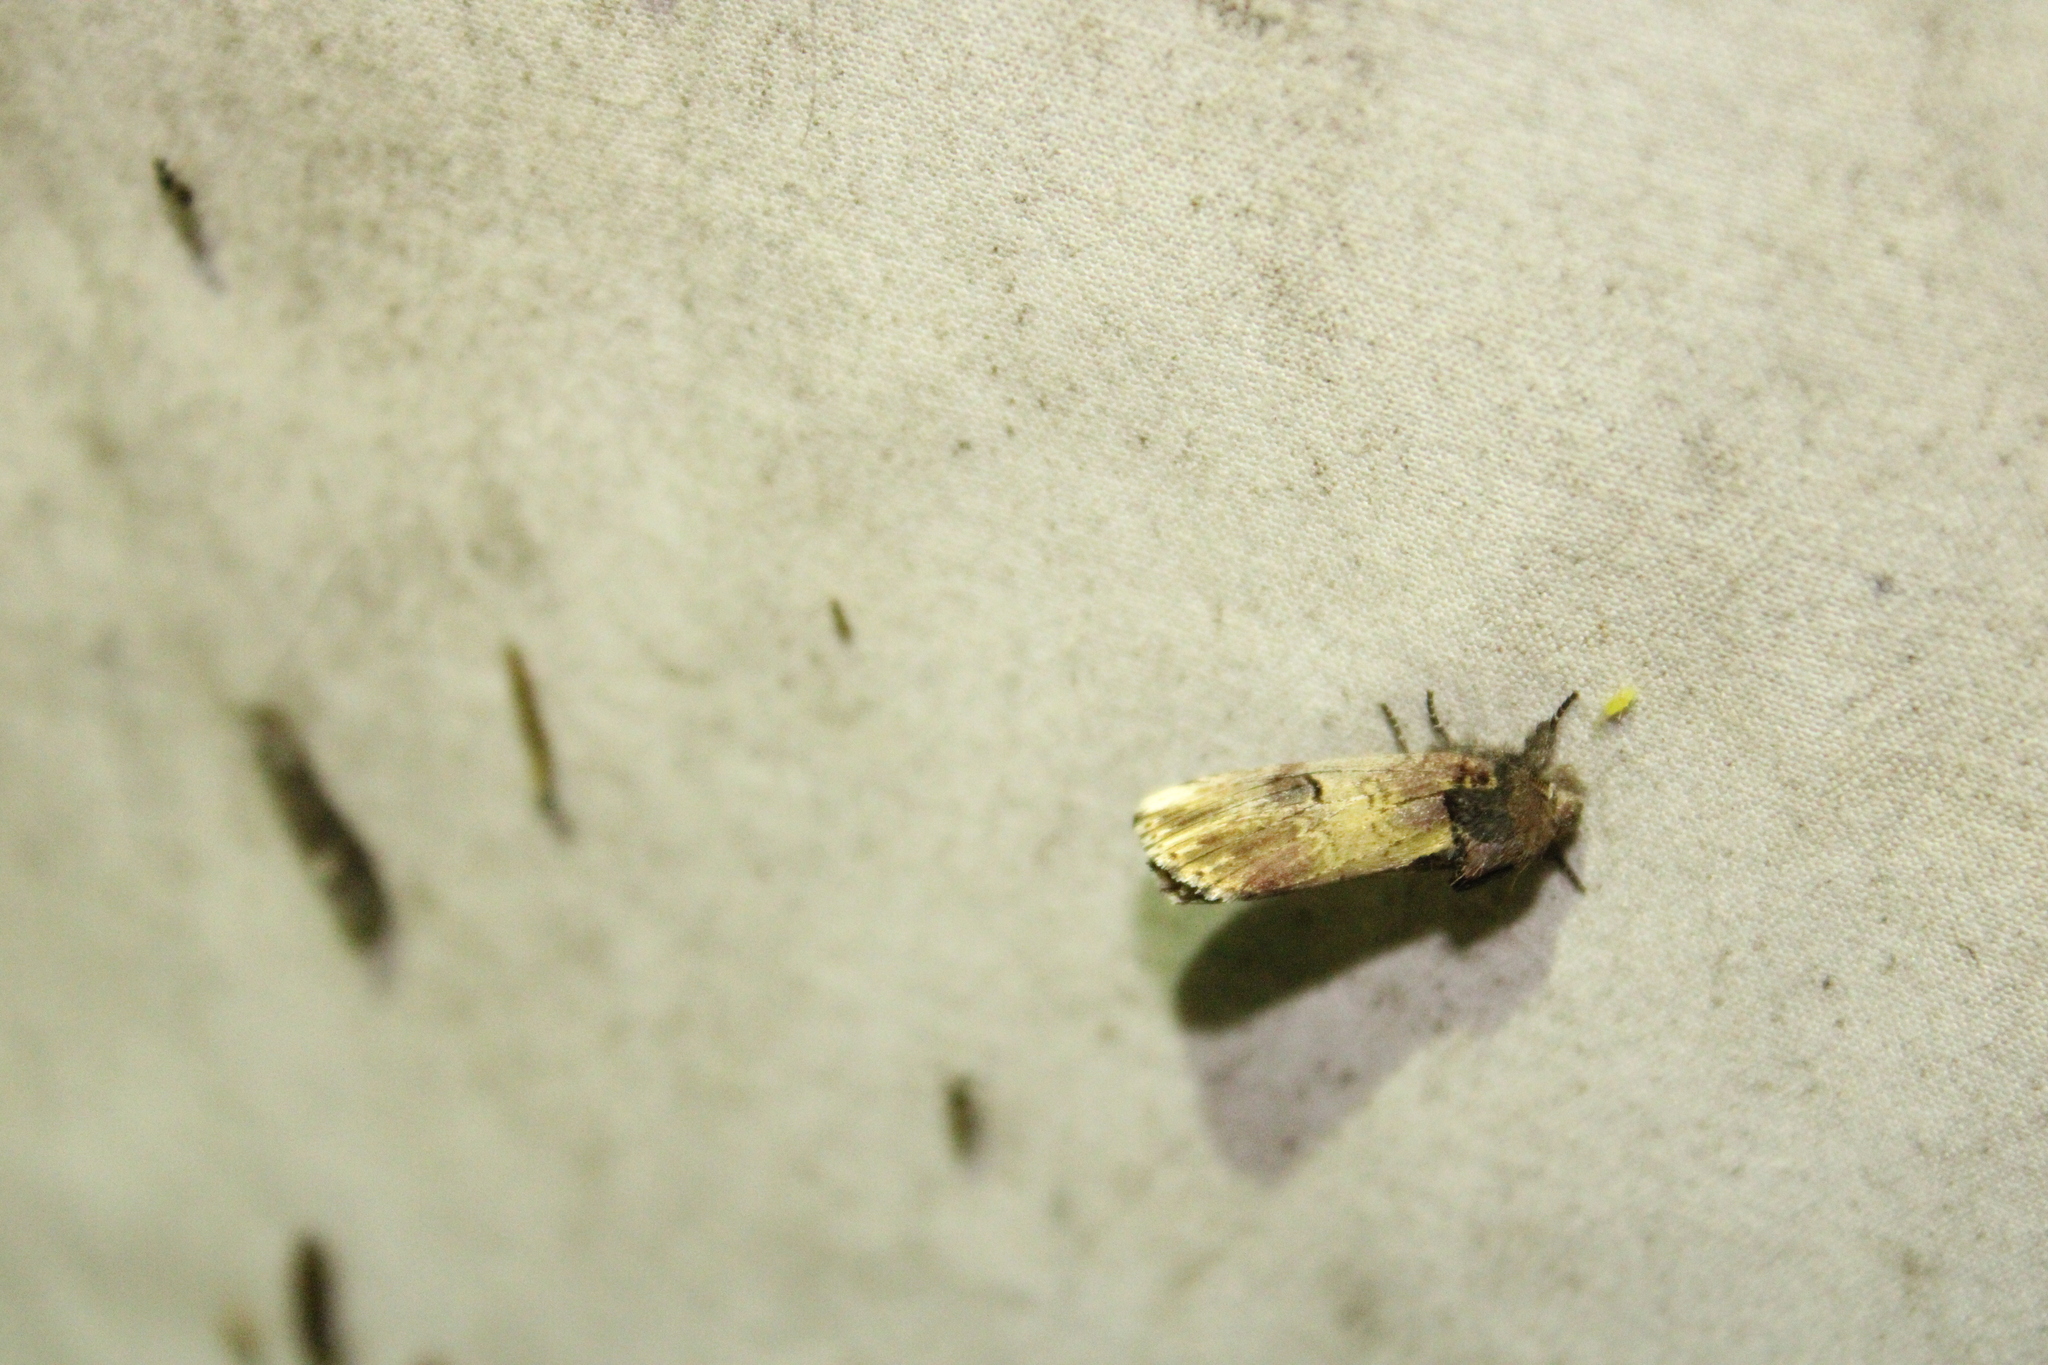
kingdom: Animalia
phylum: Arthropoda
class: Insecta
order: Lepidoptera
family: Notodontidae
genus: Schizura
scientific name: Schizura badia
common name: Chestnut schizura
